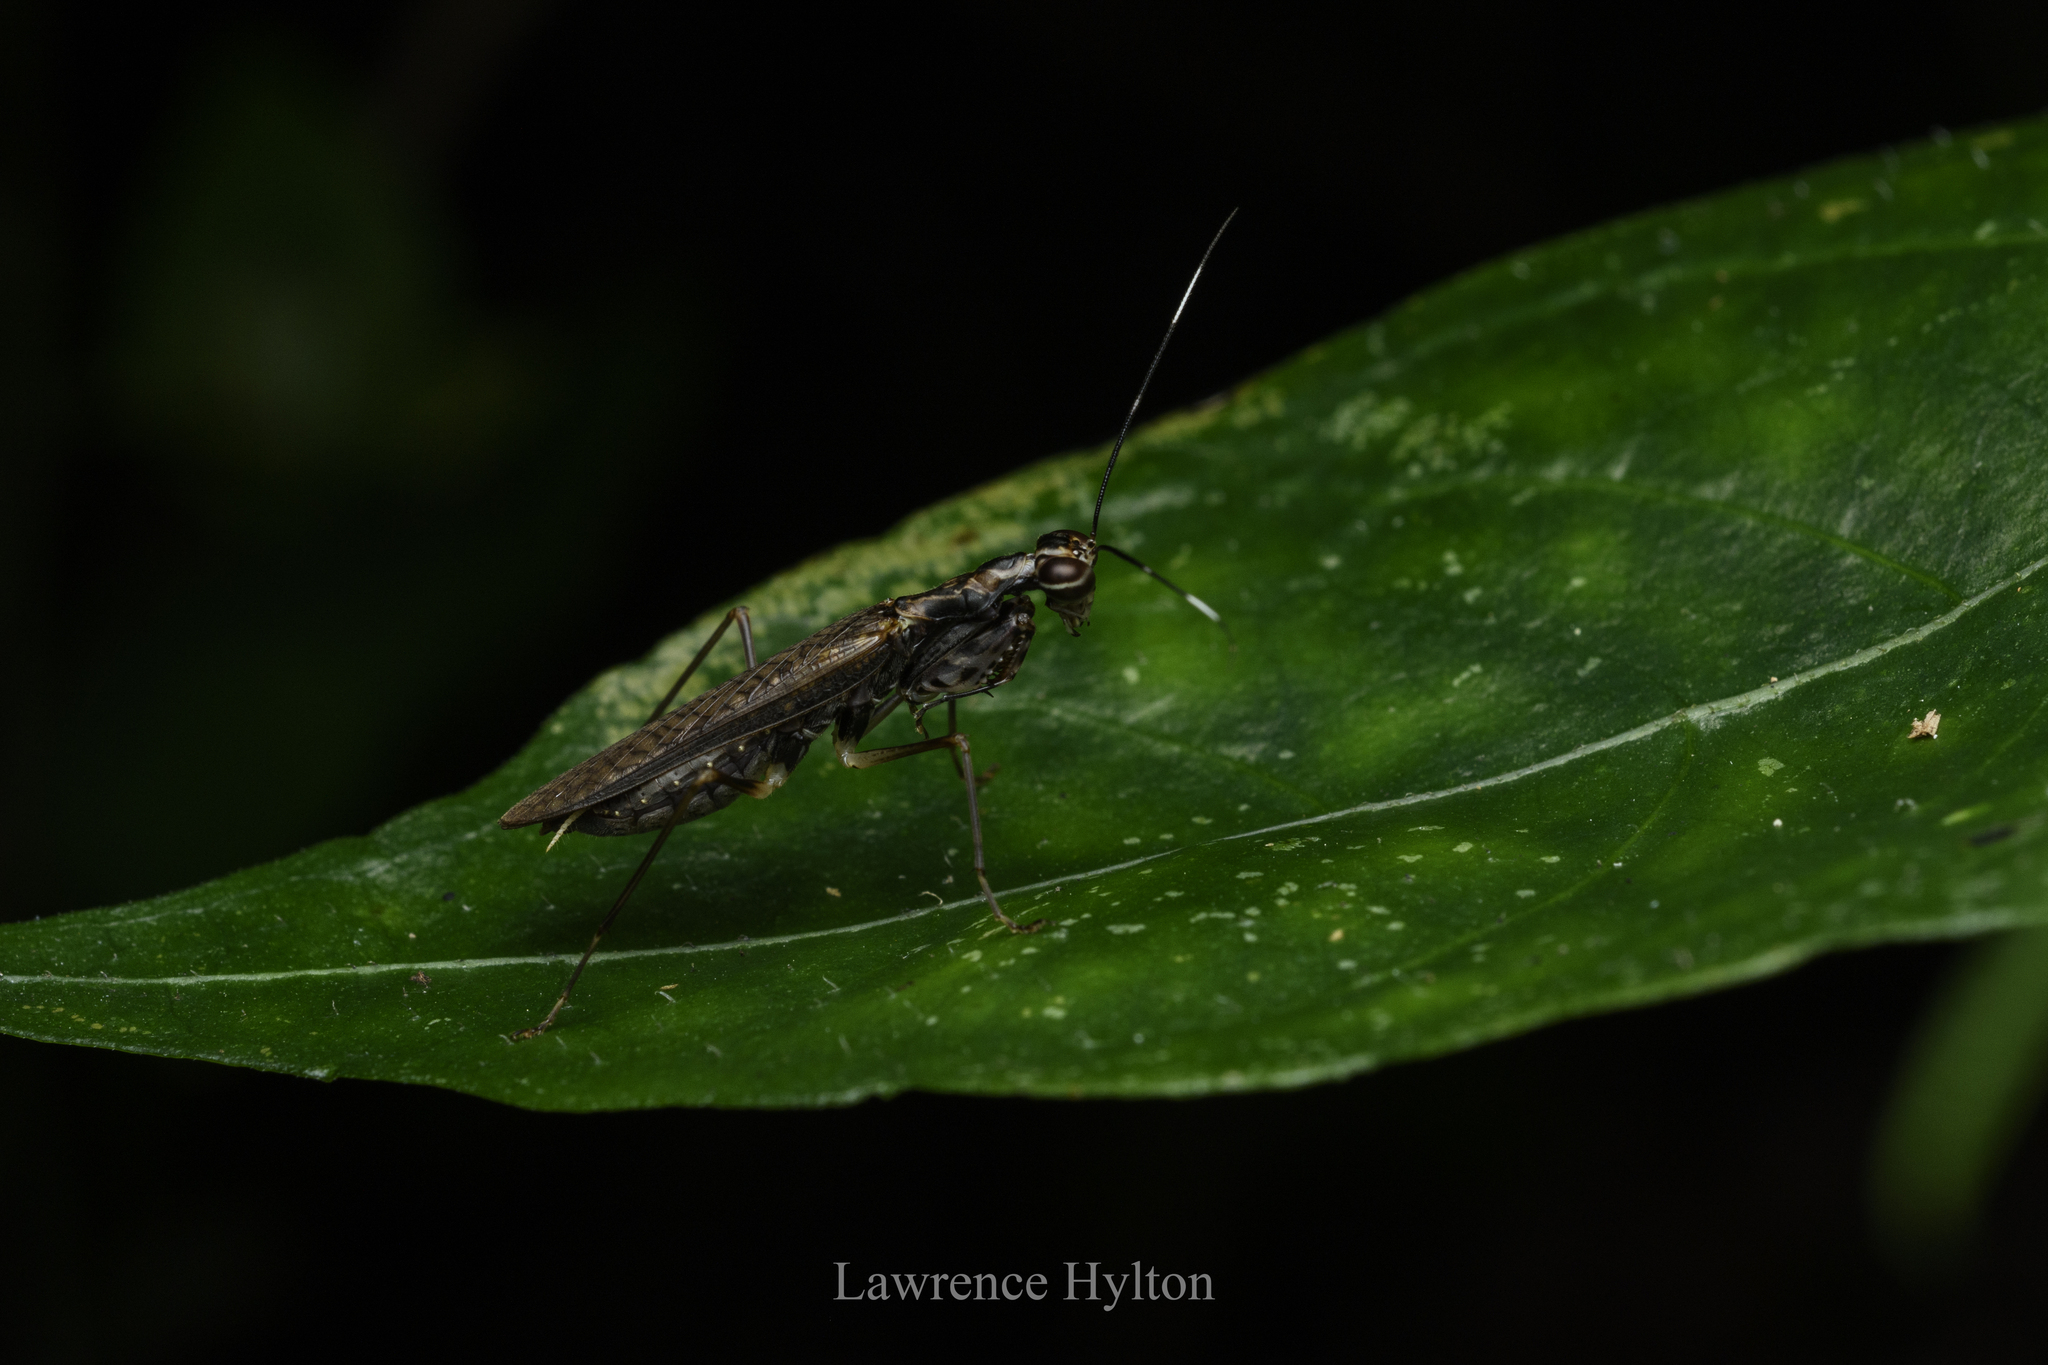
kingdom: Animalia
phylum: Arthropoda
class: Insecta
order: Mantodea
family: Gonypetidae
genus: Spilomantis
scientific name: Spilomantis occipitalis
